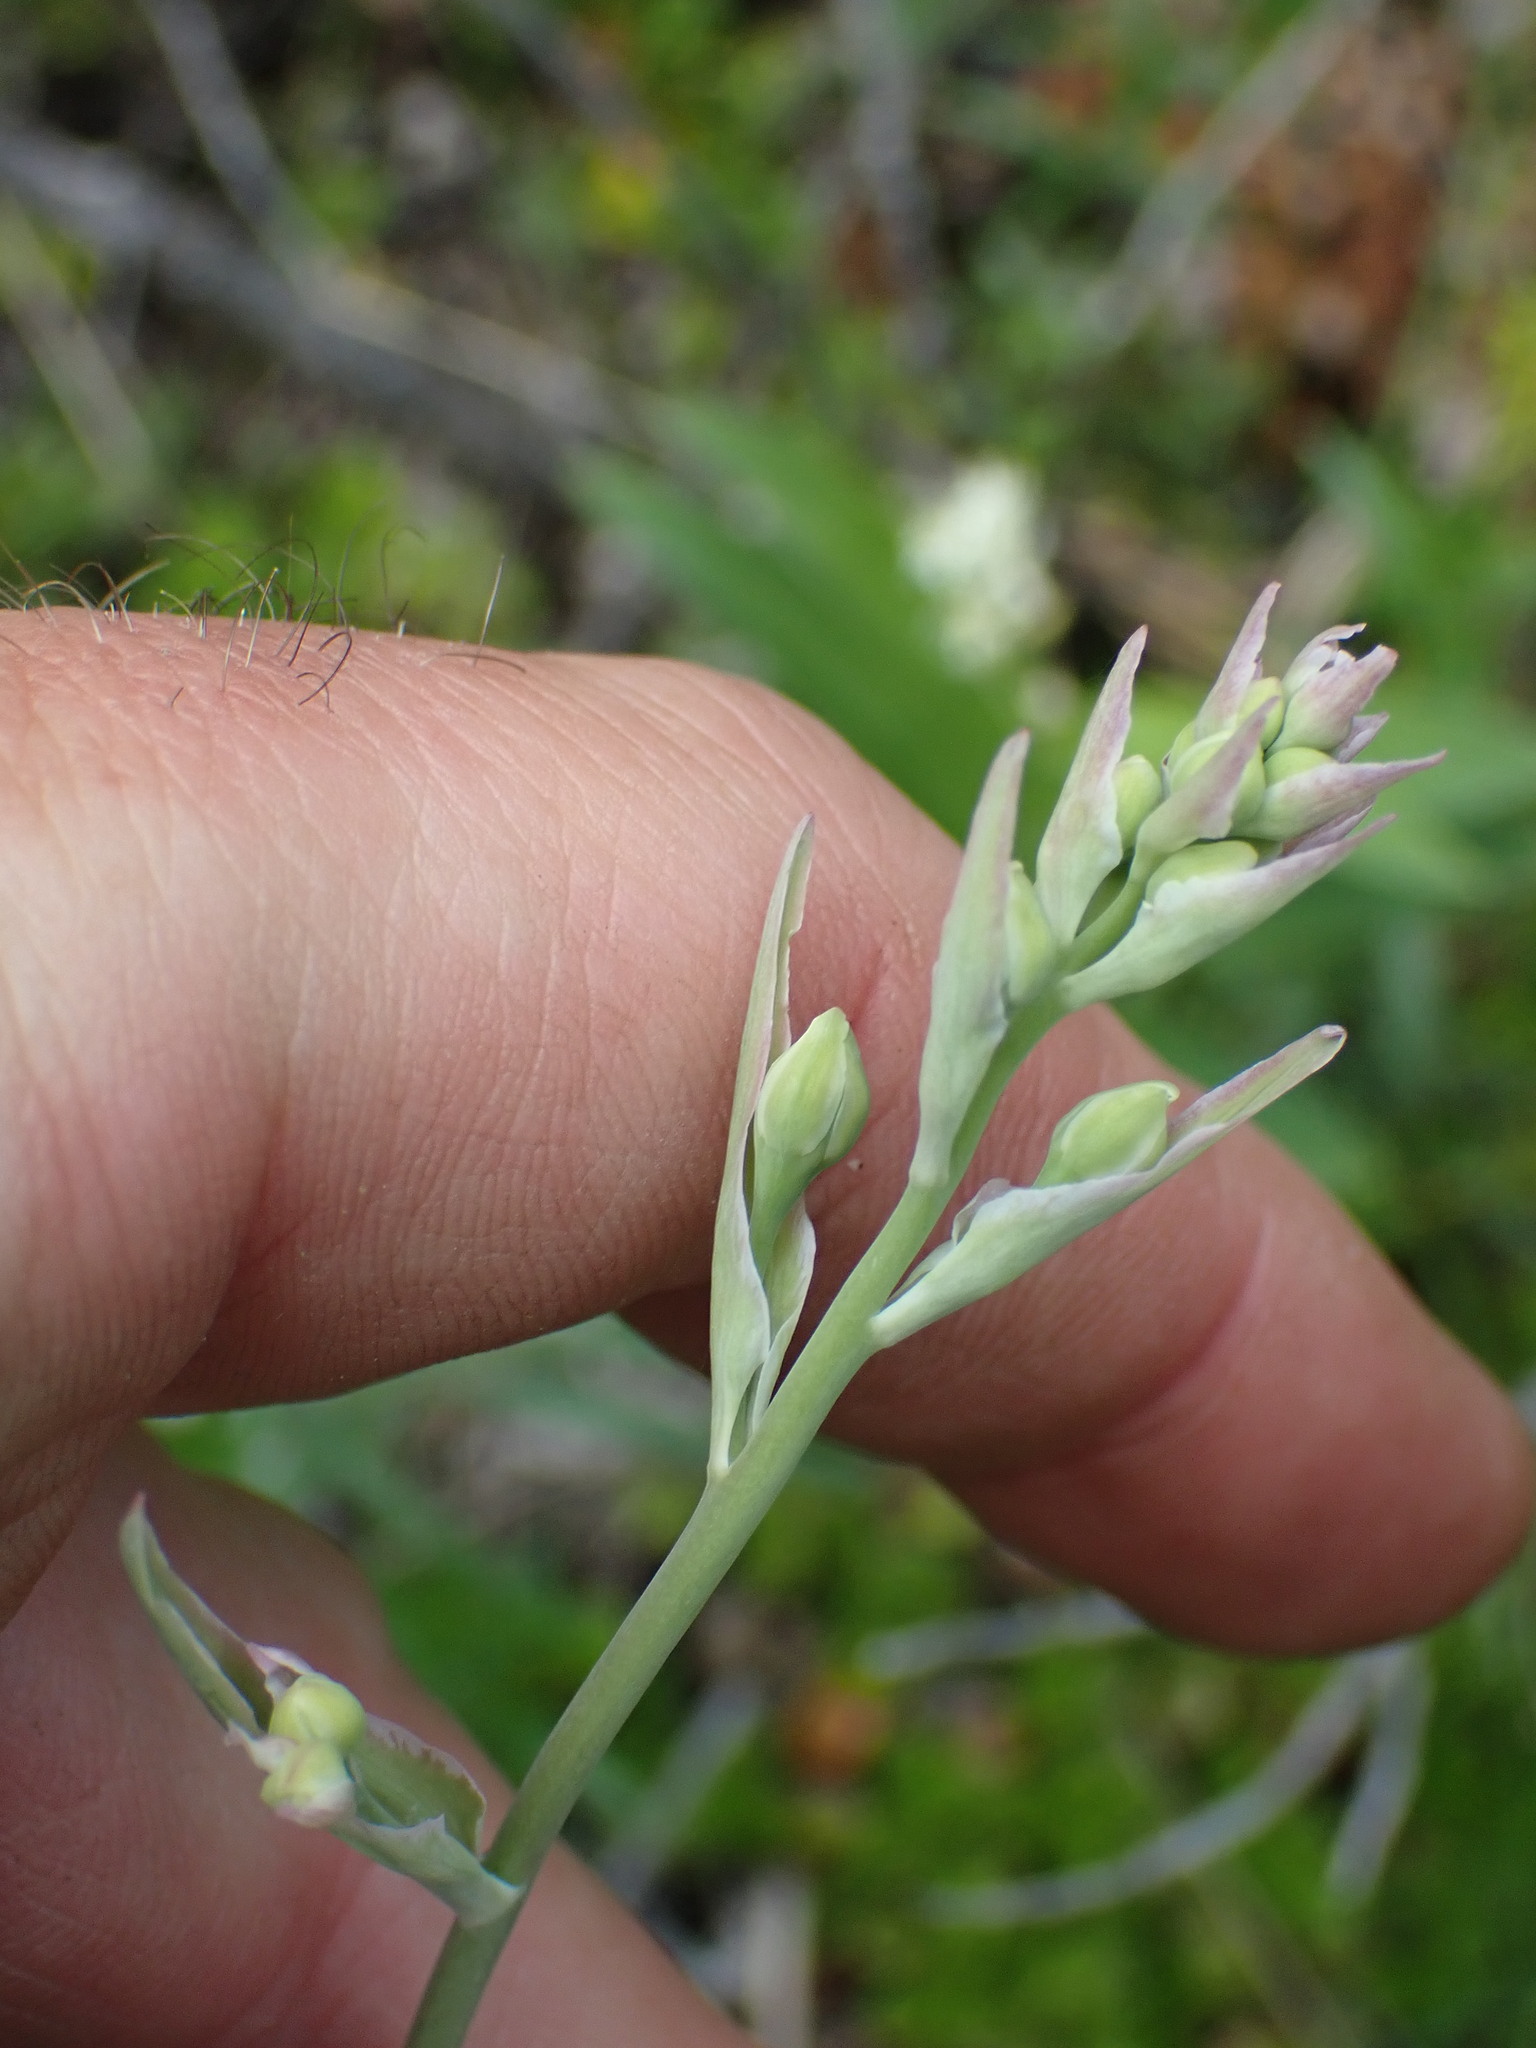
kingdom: Plantae
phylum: Tracheophyta
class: Liliopsida
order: Liliales
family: Melanthiaceae
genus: Anticlea
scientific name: Anticlea elegans
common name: Mountain death camas
